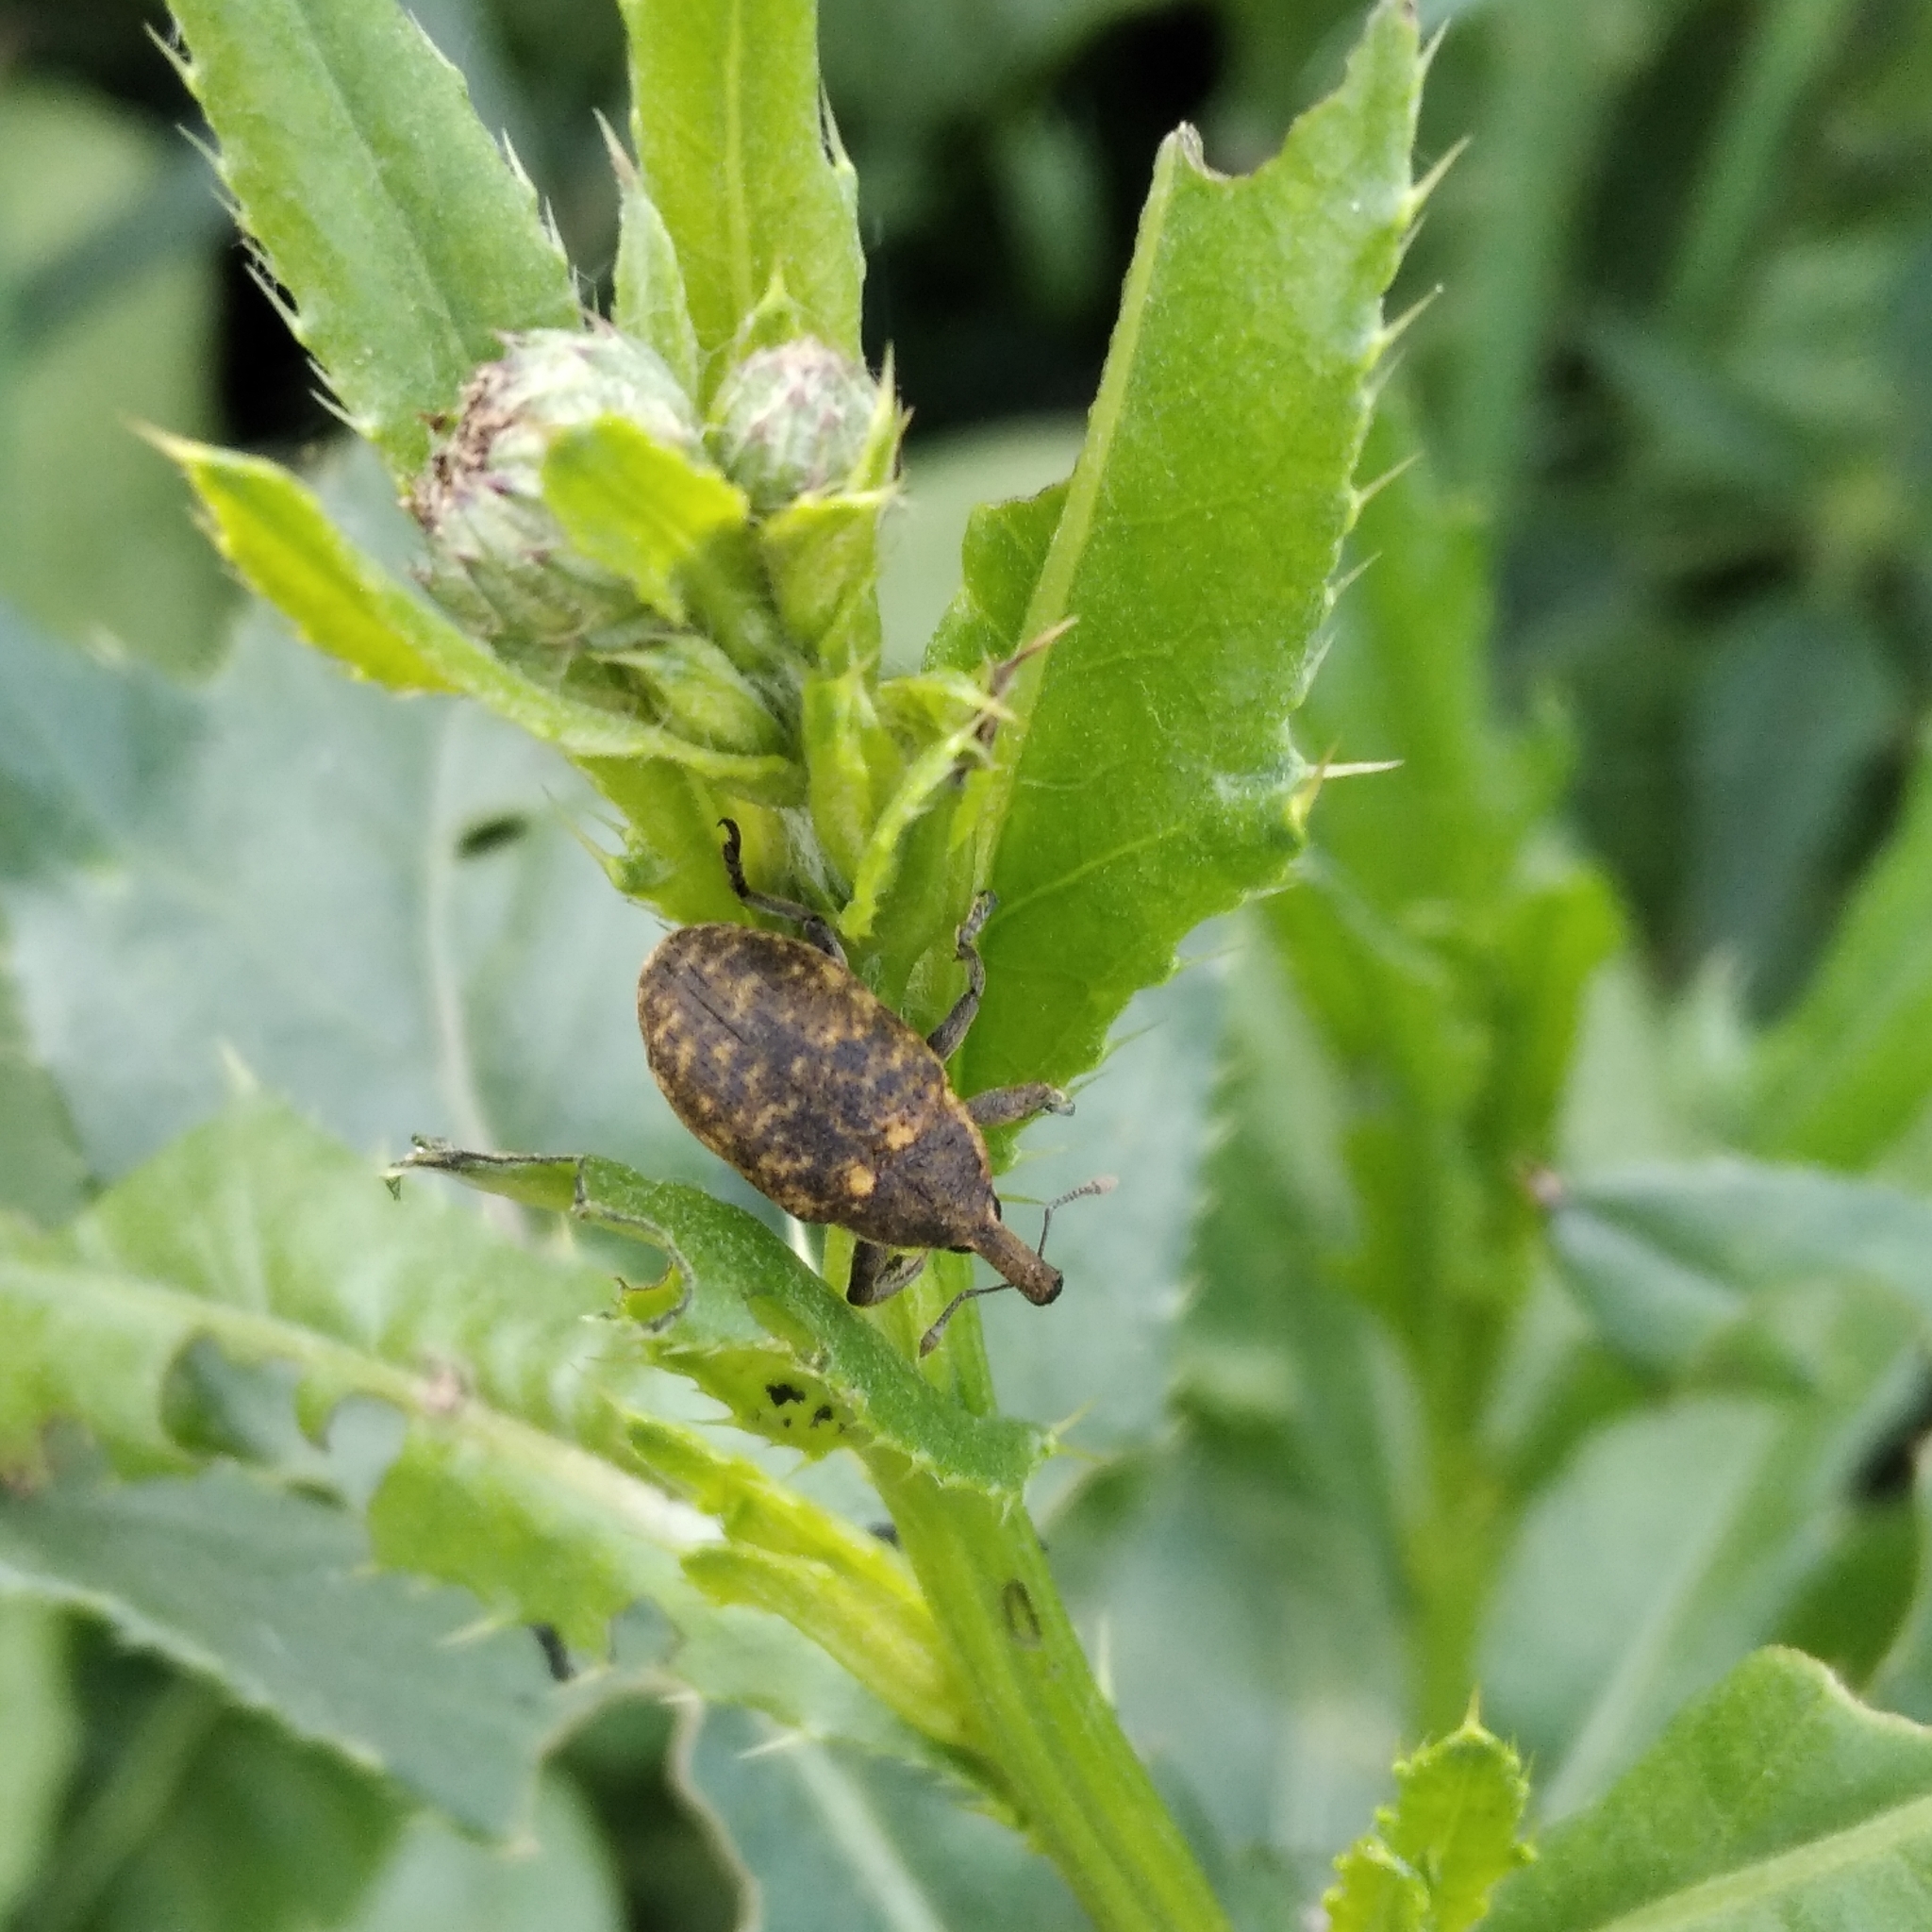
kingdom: Animalia
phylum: Arthropoda
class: Insecta
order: Coleoptera
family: Curculionidae
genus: Larinus
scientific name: Larinus sturnus
